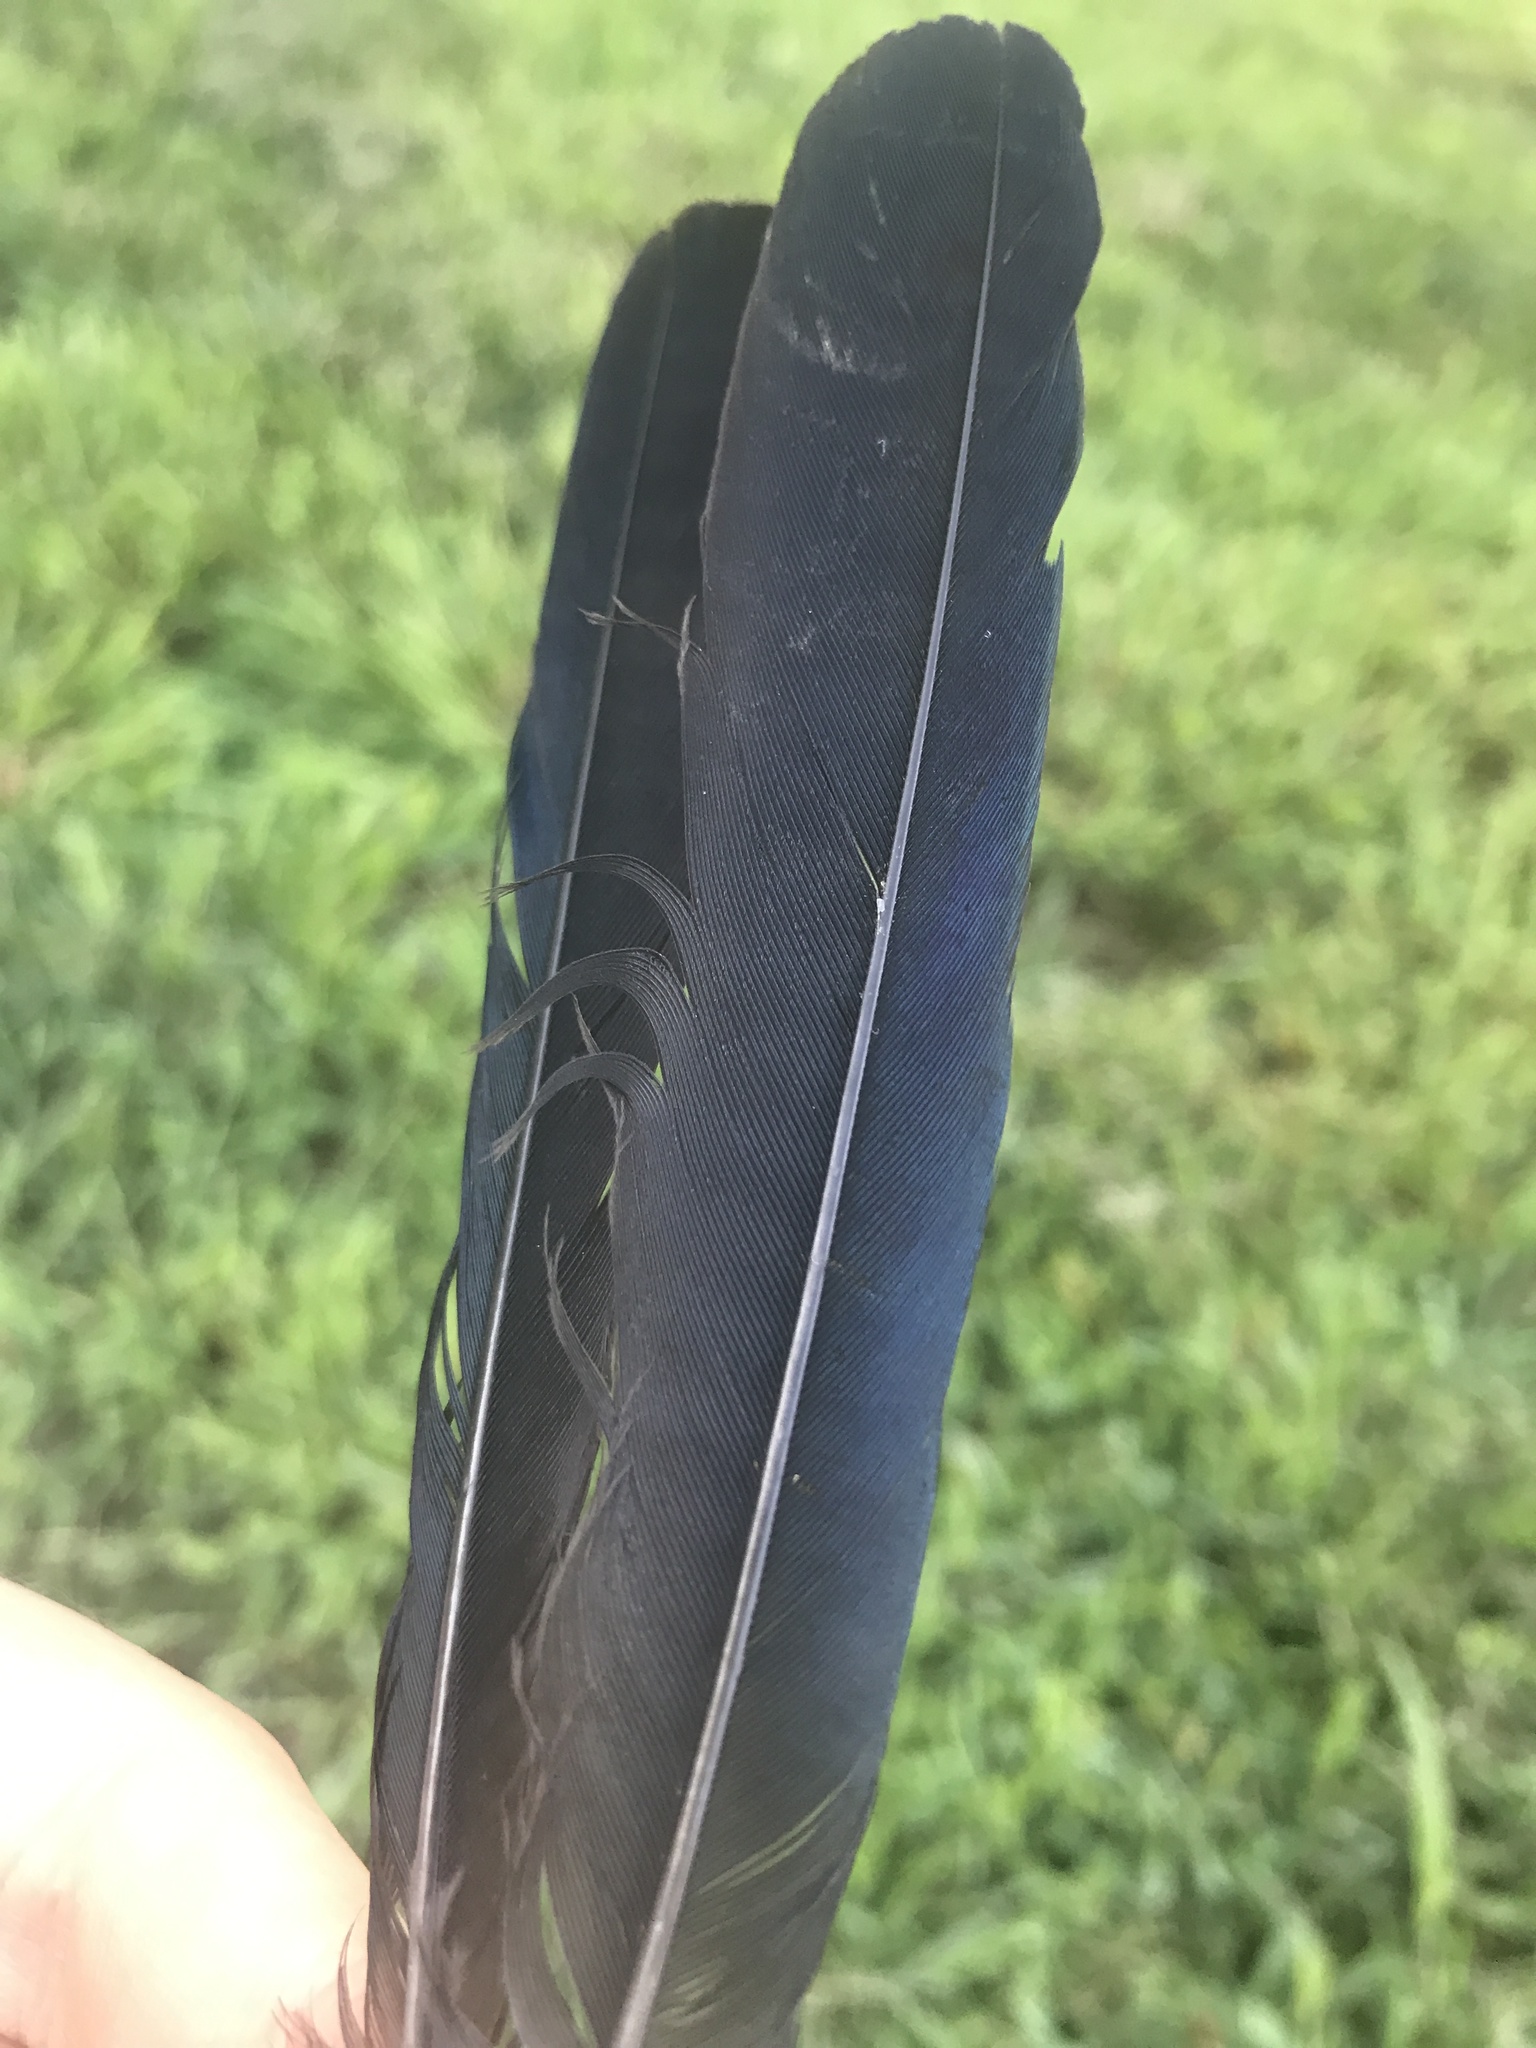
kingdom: Animalia
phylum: Chordata
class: Aves
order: Passeriformes
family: Icteridae
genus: Quiscalus
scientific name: Quiscalus quiscula
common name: Common grackle
